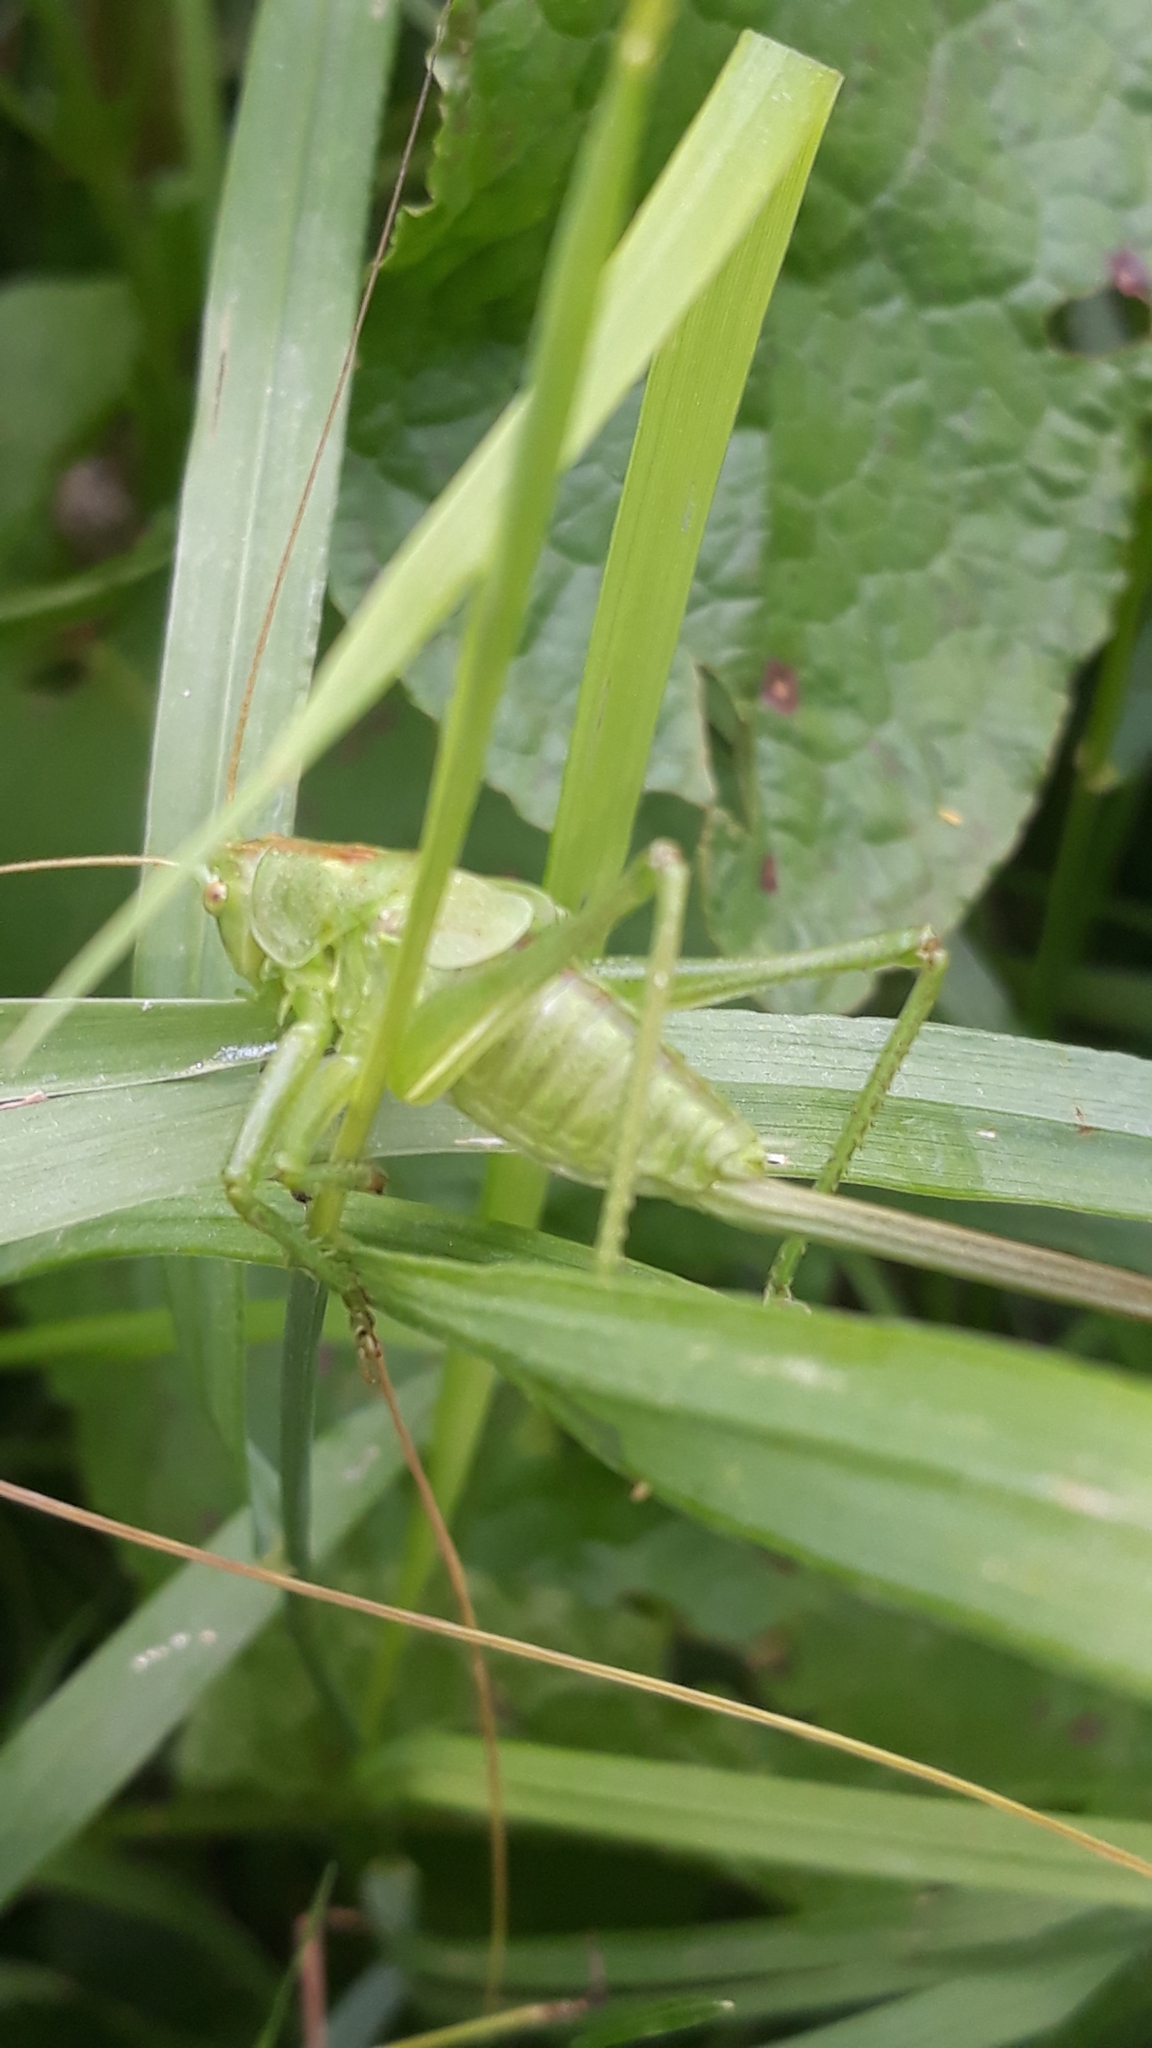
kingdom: Animalia
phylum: Arthropoda
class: Insecta
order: Orthoptera
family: Tettigoniidae
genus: Tettigonia
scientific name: Tettigonia cantans
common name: Upland green bush-cricket
